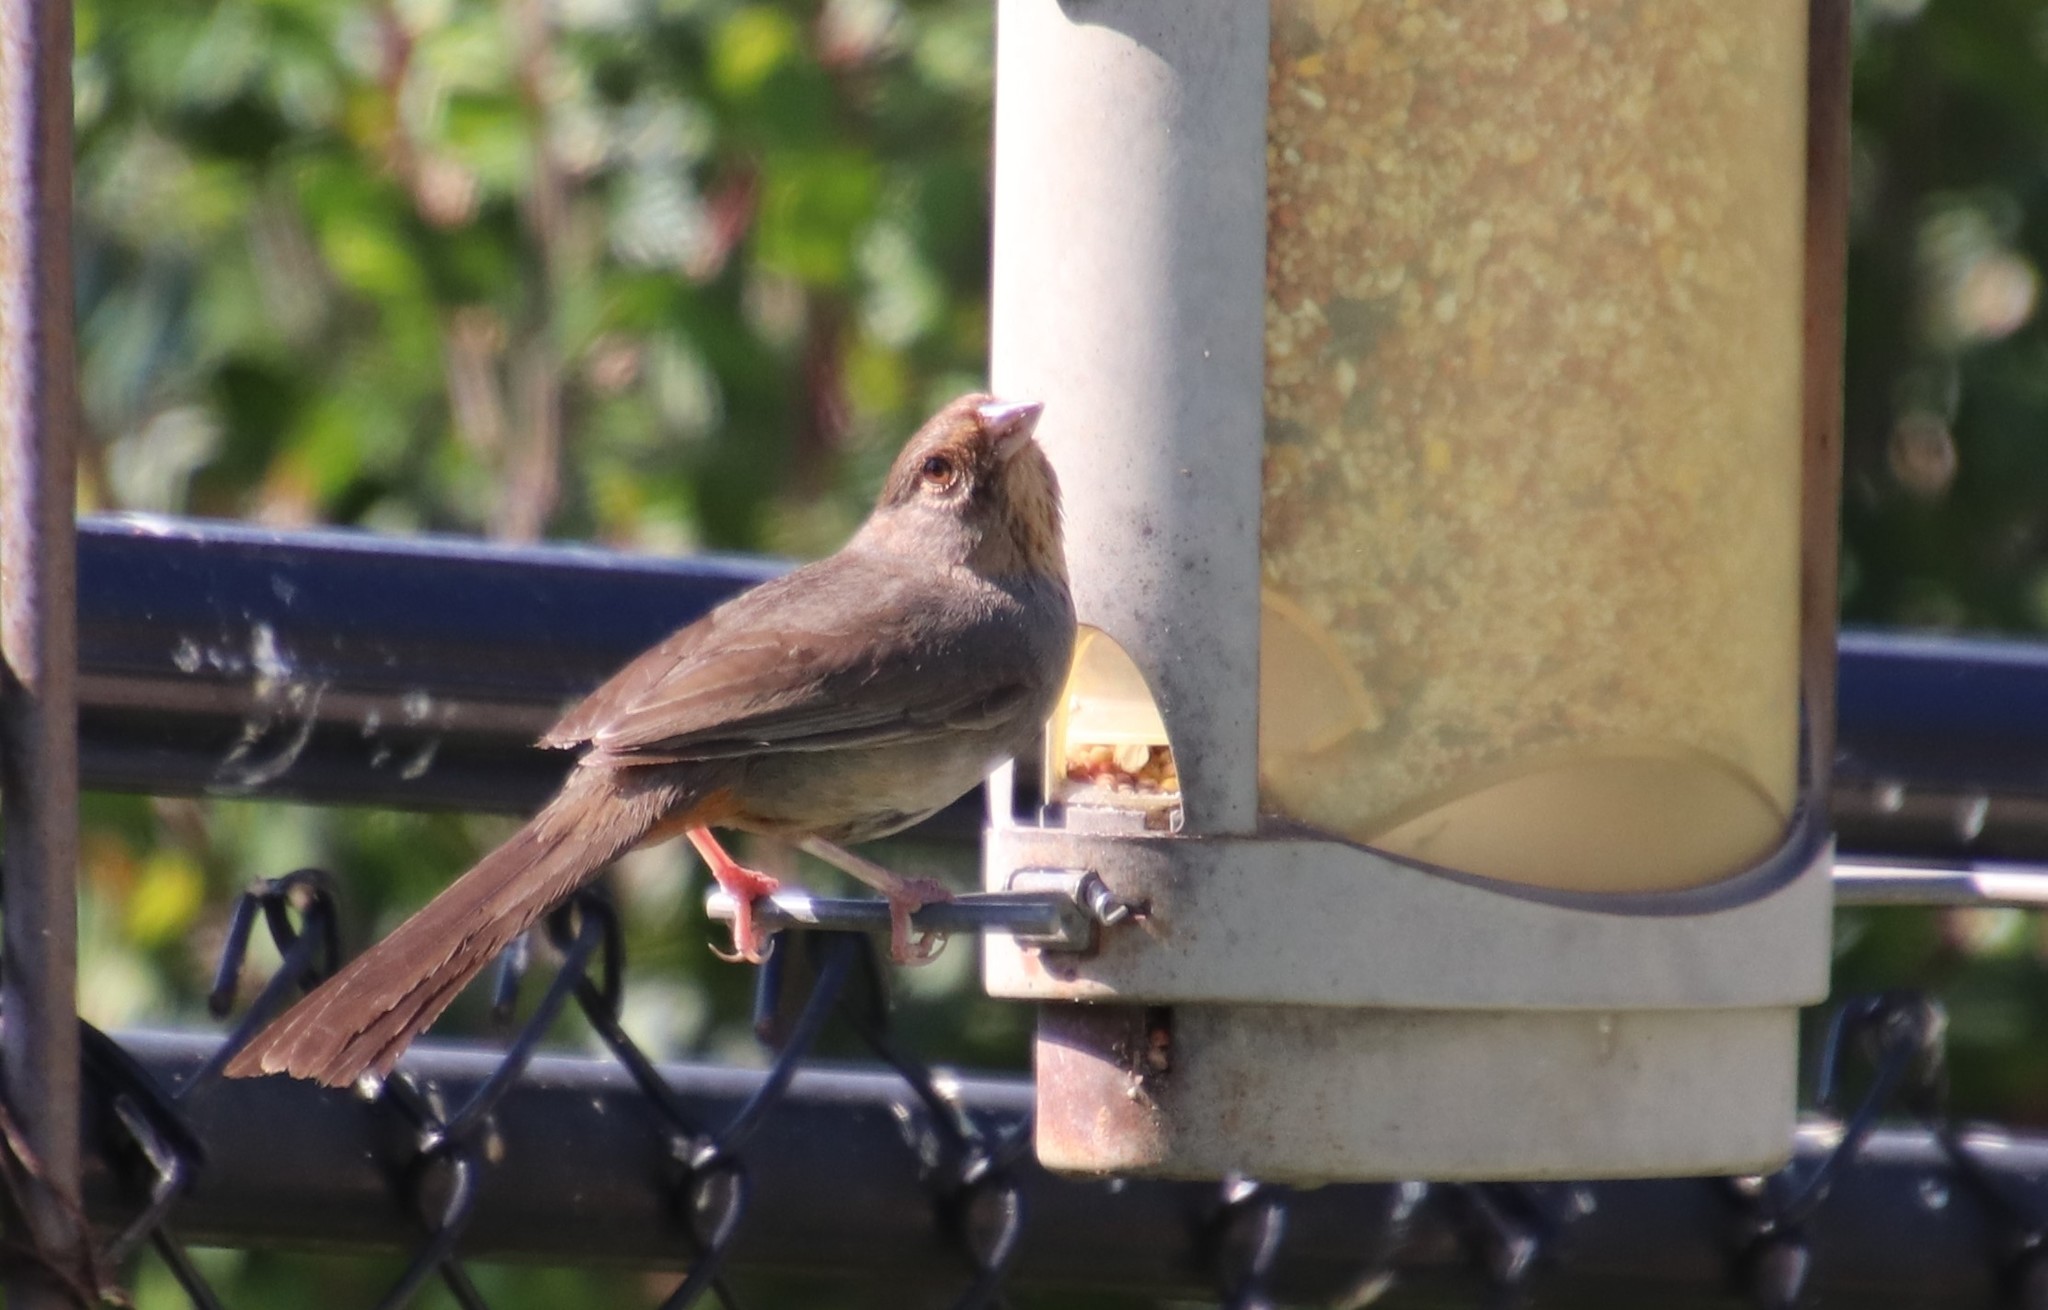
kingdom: Animalia
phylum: Chordata
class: Aves
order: Passeriformes
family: Passerellidae
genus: Melozone
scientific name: Melozone crissalis
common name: California towhee
